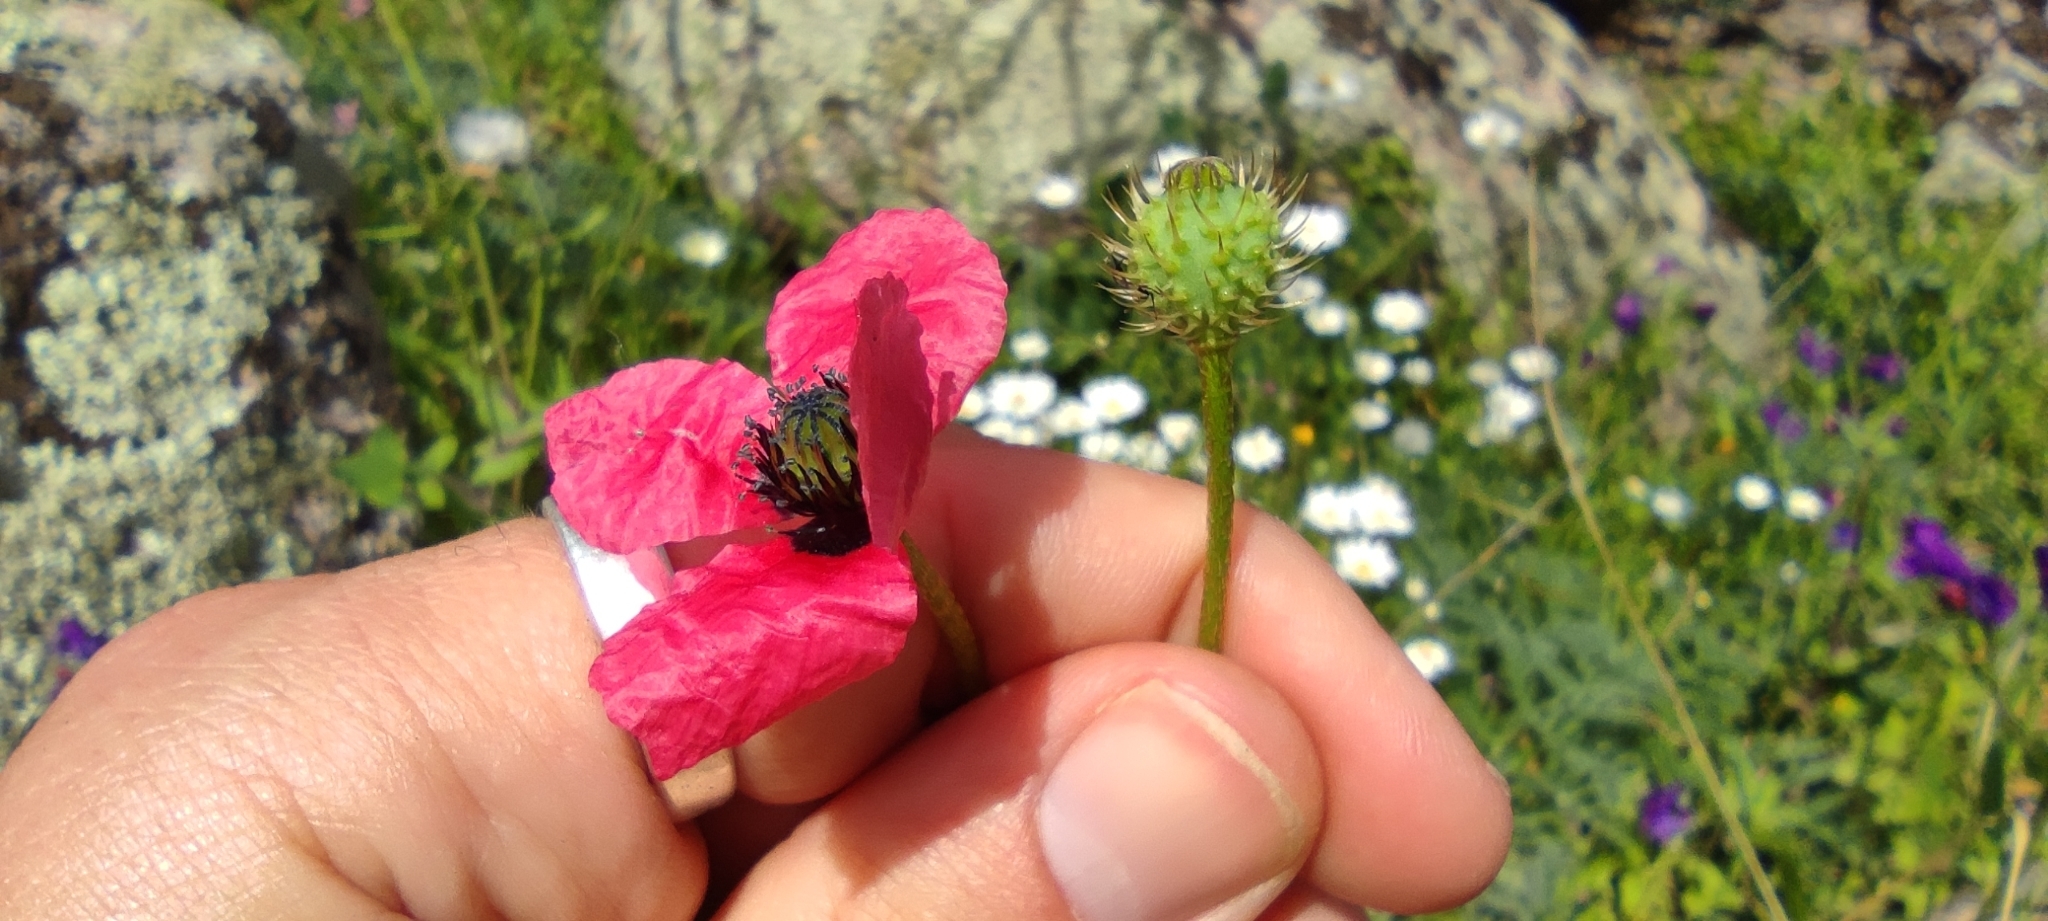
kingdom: Plantae
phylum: Tracheophyta
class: Magnoliopsida
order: Ranunculales
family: Papaveraceae
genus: Roemeria
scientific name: Roemeria hispida
